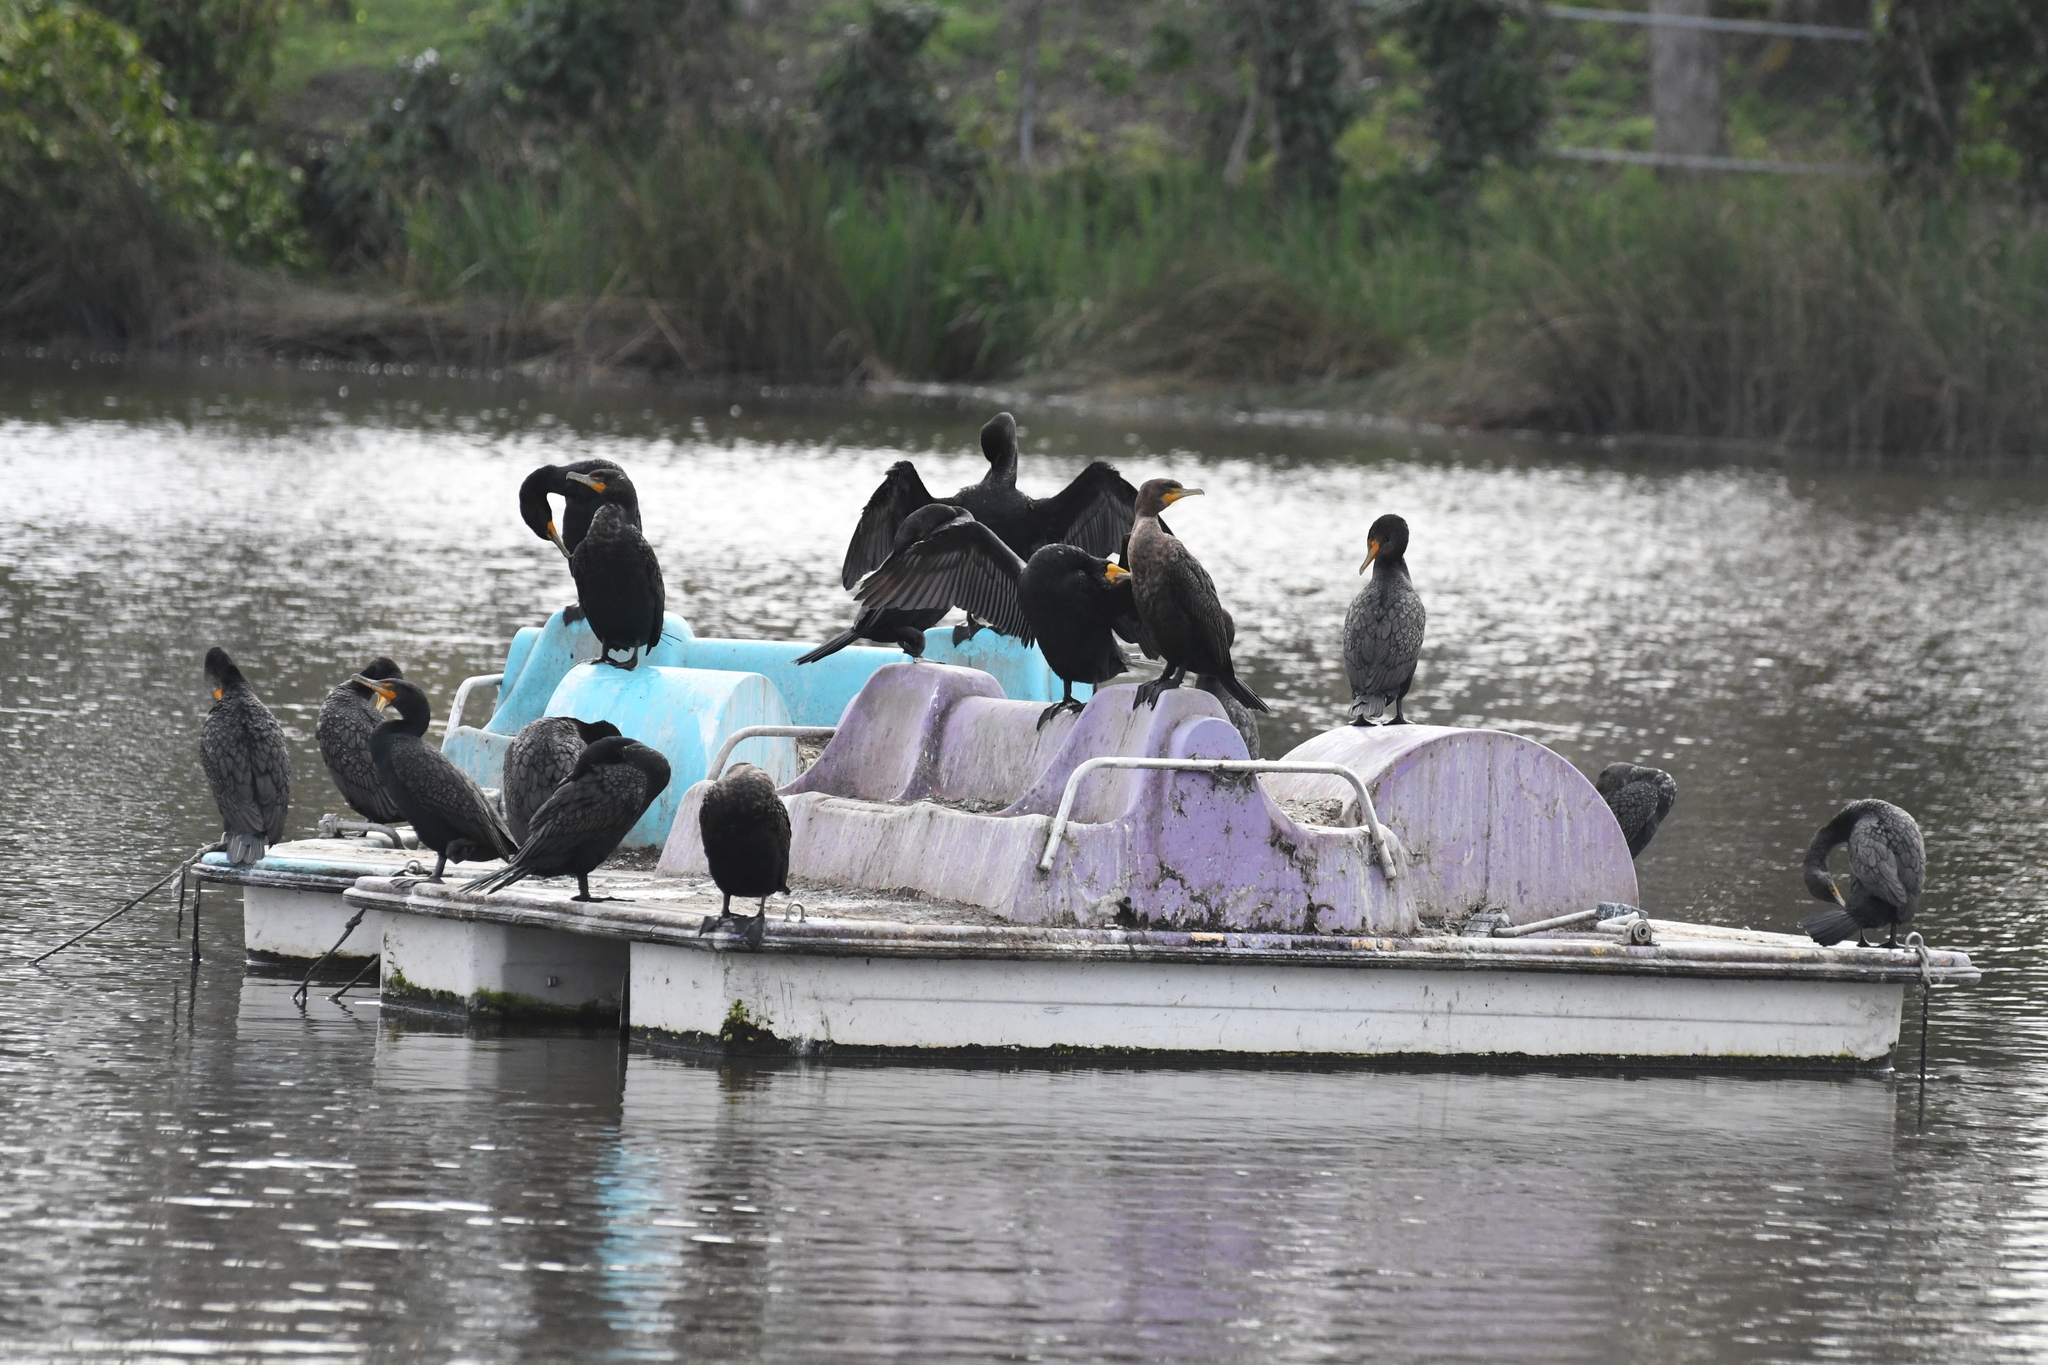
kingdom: Animalia
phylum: Chordata
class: Aves
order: Suliformes
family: Phalacrocoracidae
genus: Phalacrocorax
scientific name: Phalacrocorax auritus
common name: Double-crested cormorant
